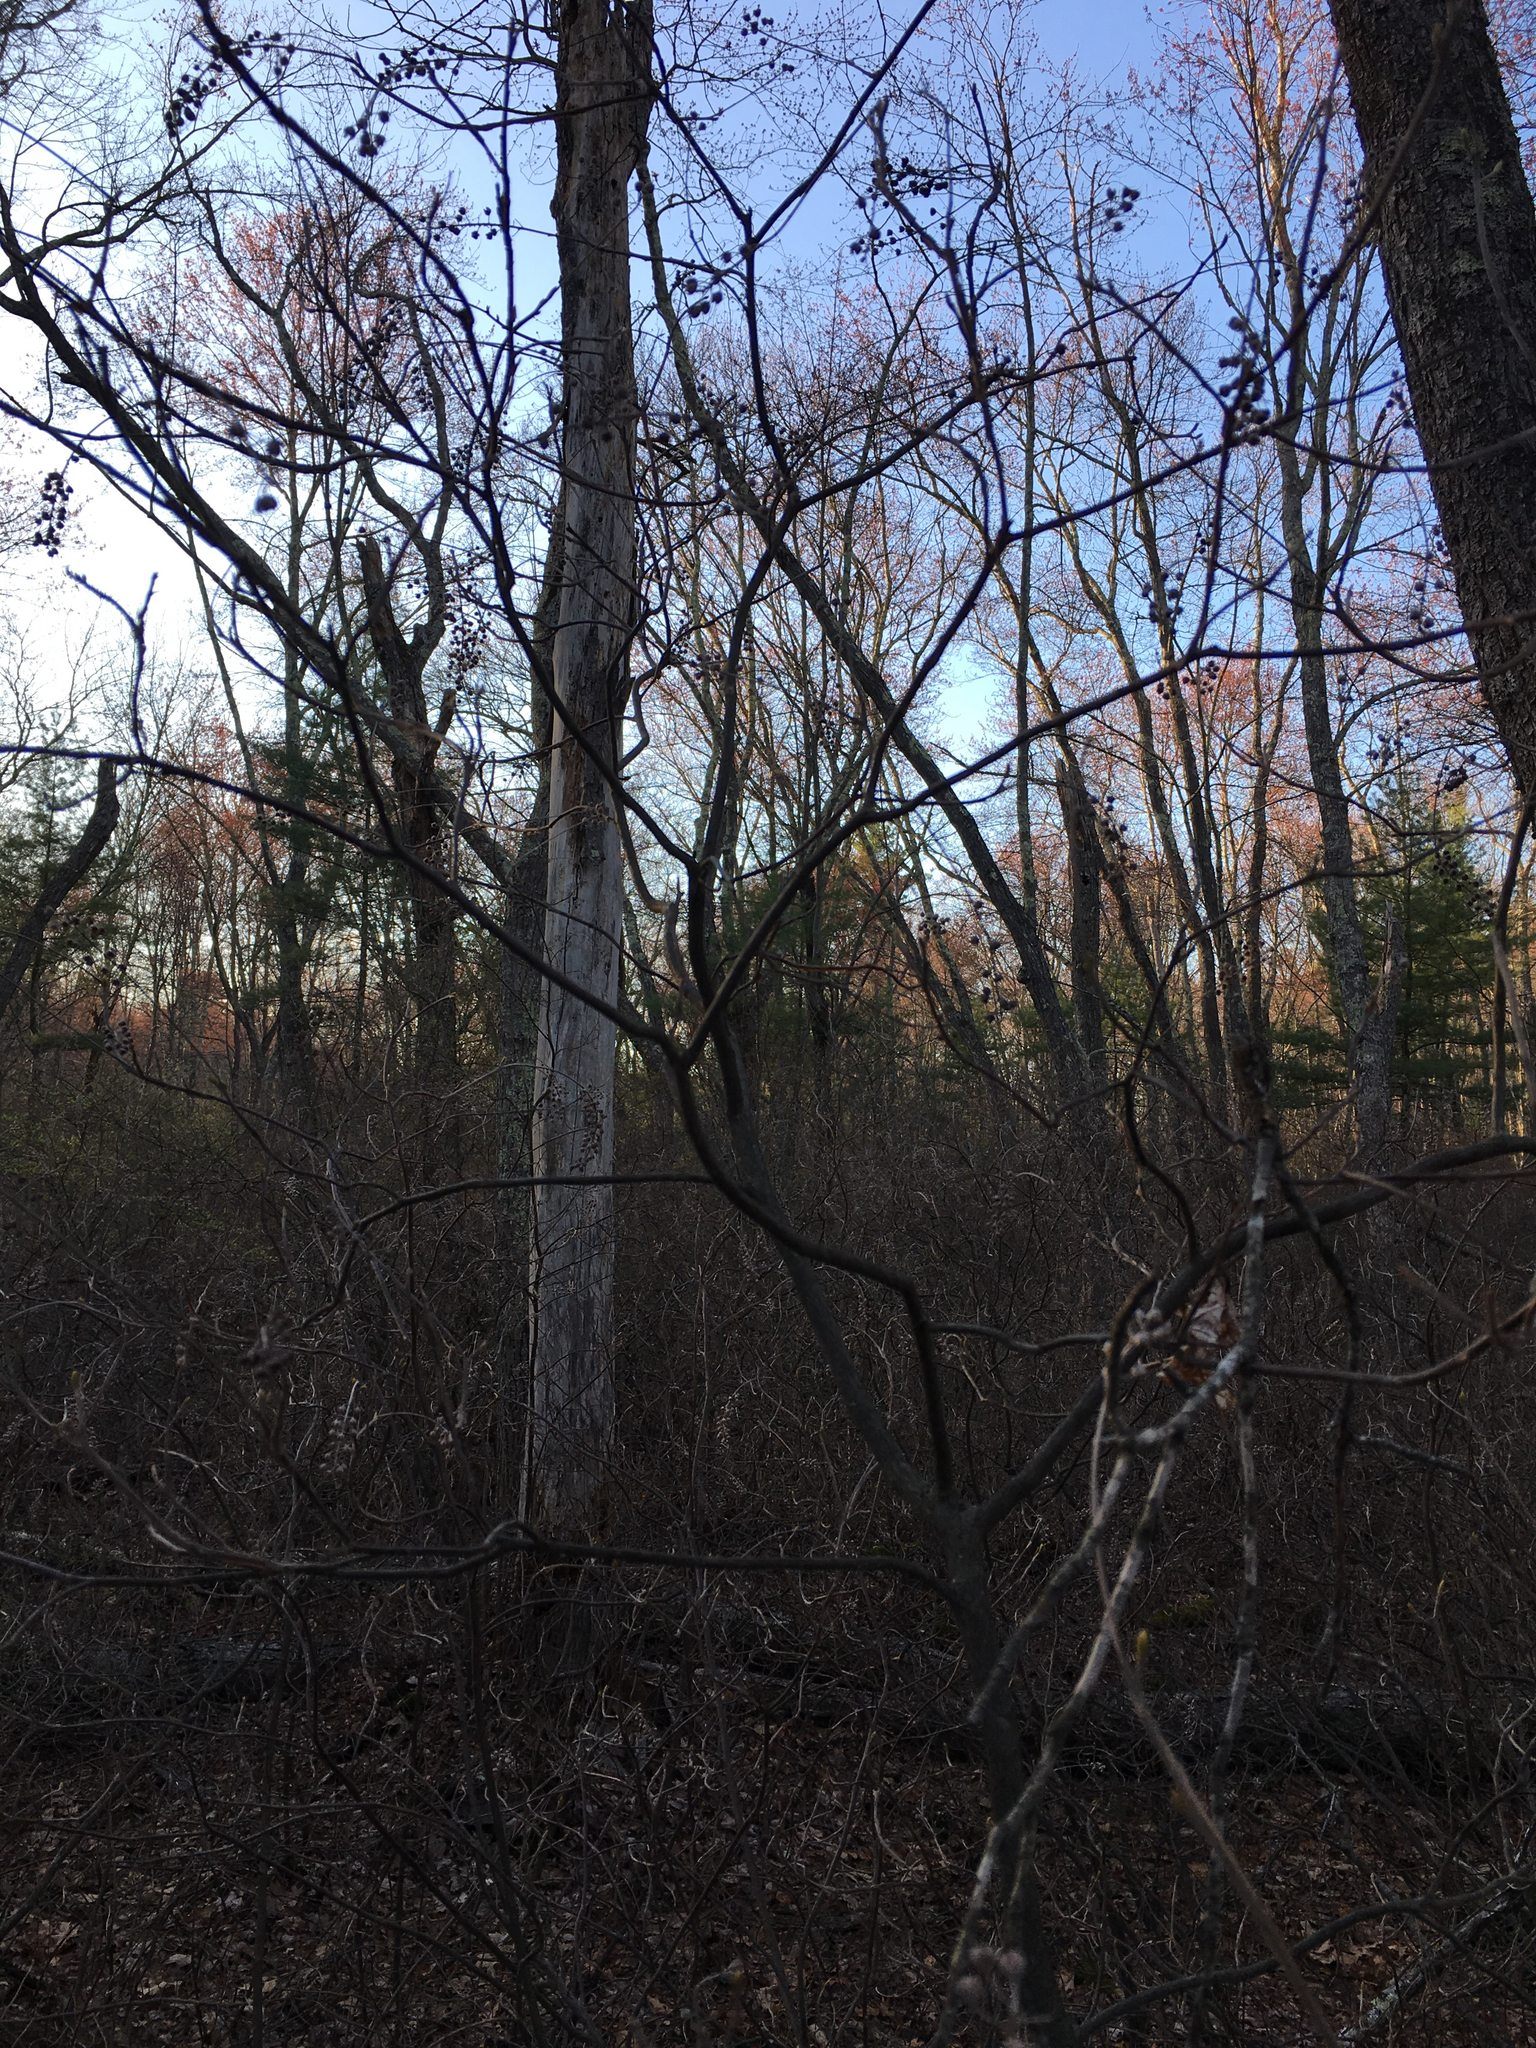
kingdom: Plantae
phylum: Tracheophyta
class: Magnoliopsida
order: Ericales
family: Clethraceae
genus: Clethra
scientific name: Clethra alnifolia
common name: Sweet pepperbush
